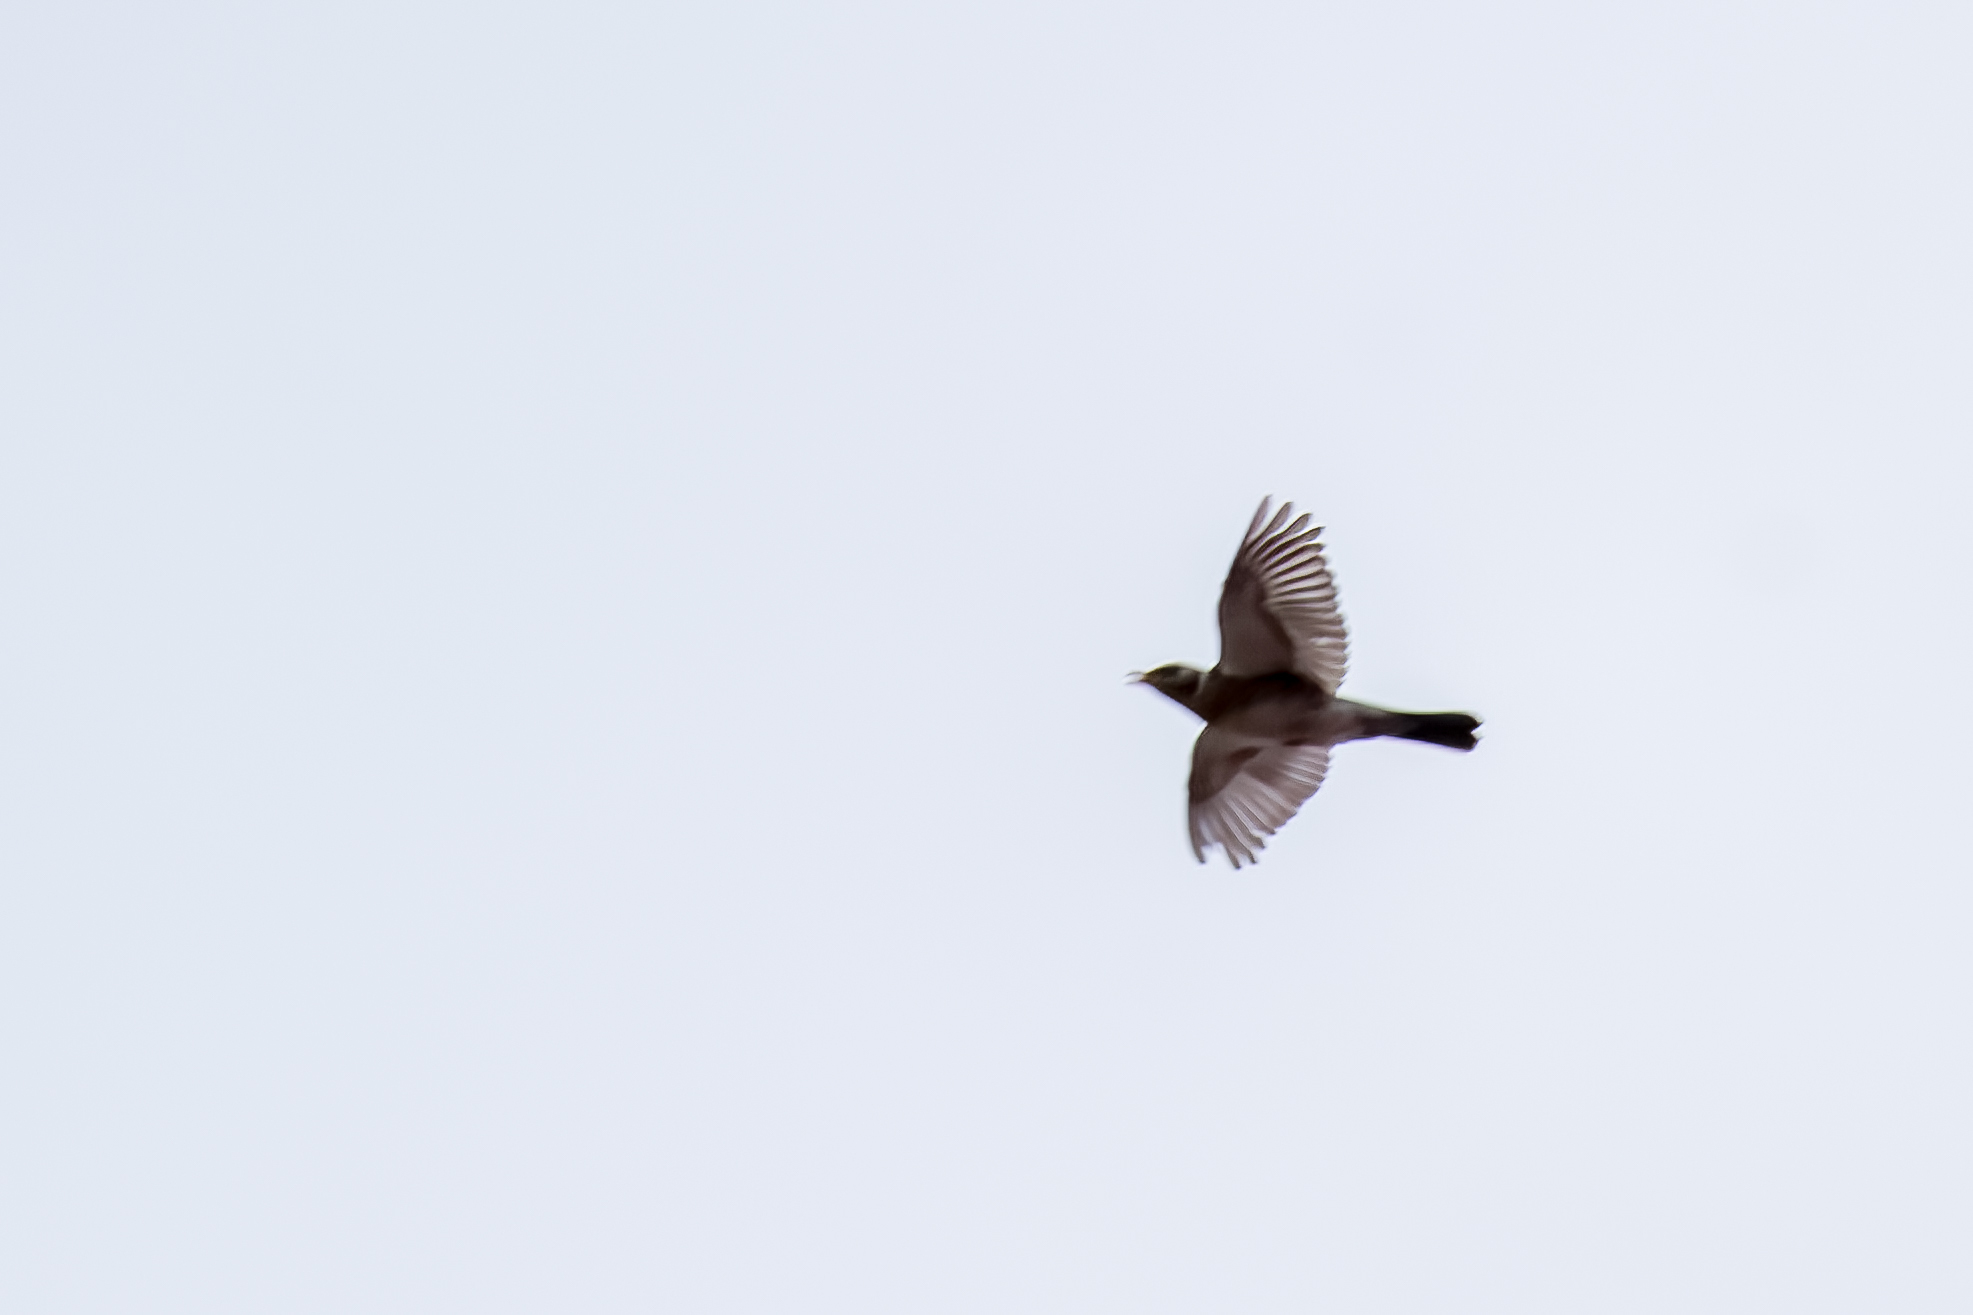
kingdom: Animalia
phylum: Chordata
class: Aves
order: Passeriformes
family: Turdidae
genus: Turdus
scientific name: Turdus pilaris
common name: Fieldfare
